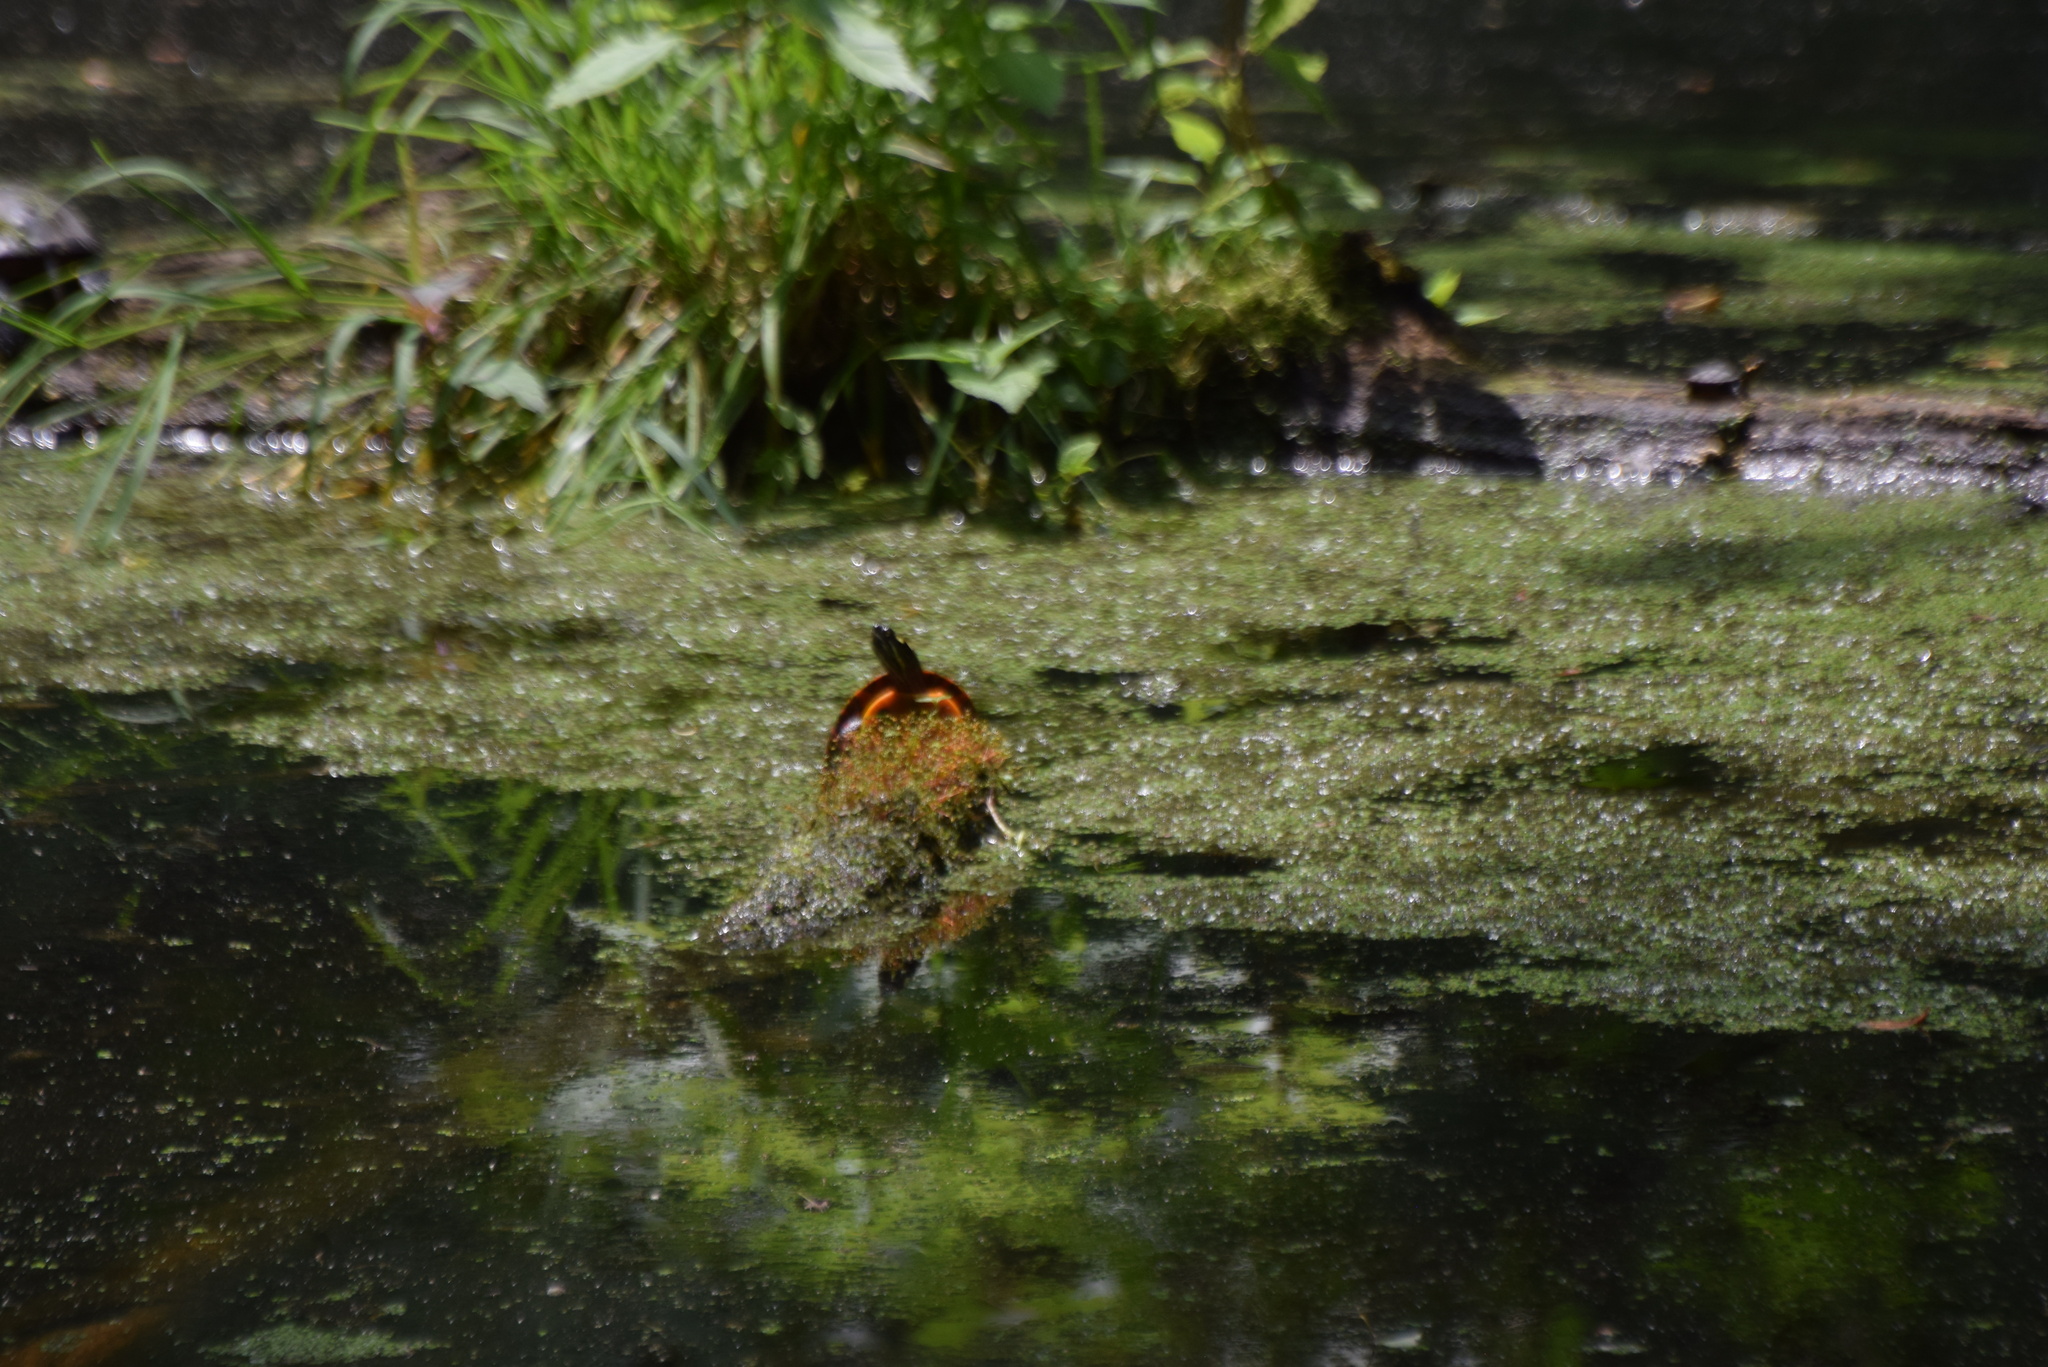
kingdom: Animalia
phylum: Chordata
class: Testudines
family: Emydidae
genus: Chrysemys
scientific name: Chrysemys picta
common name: Painted turtle
